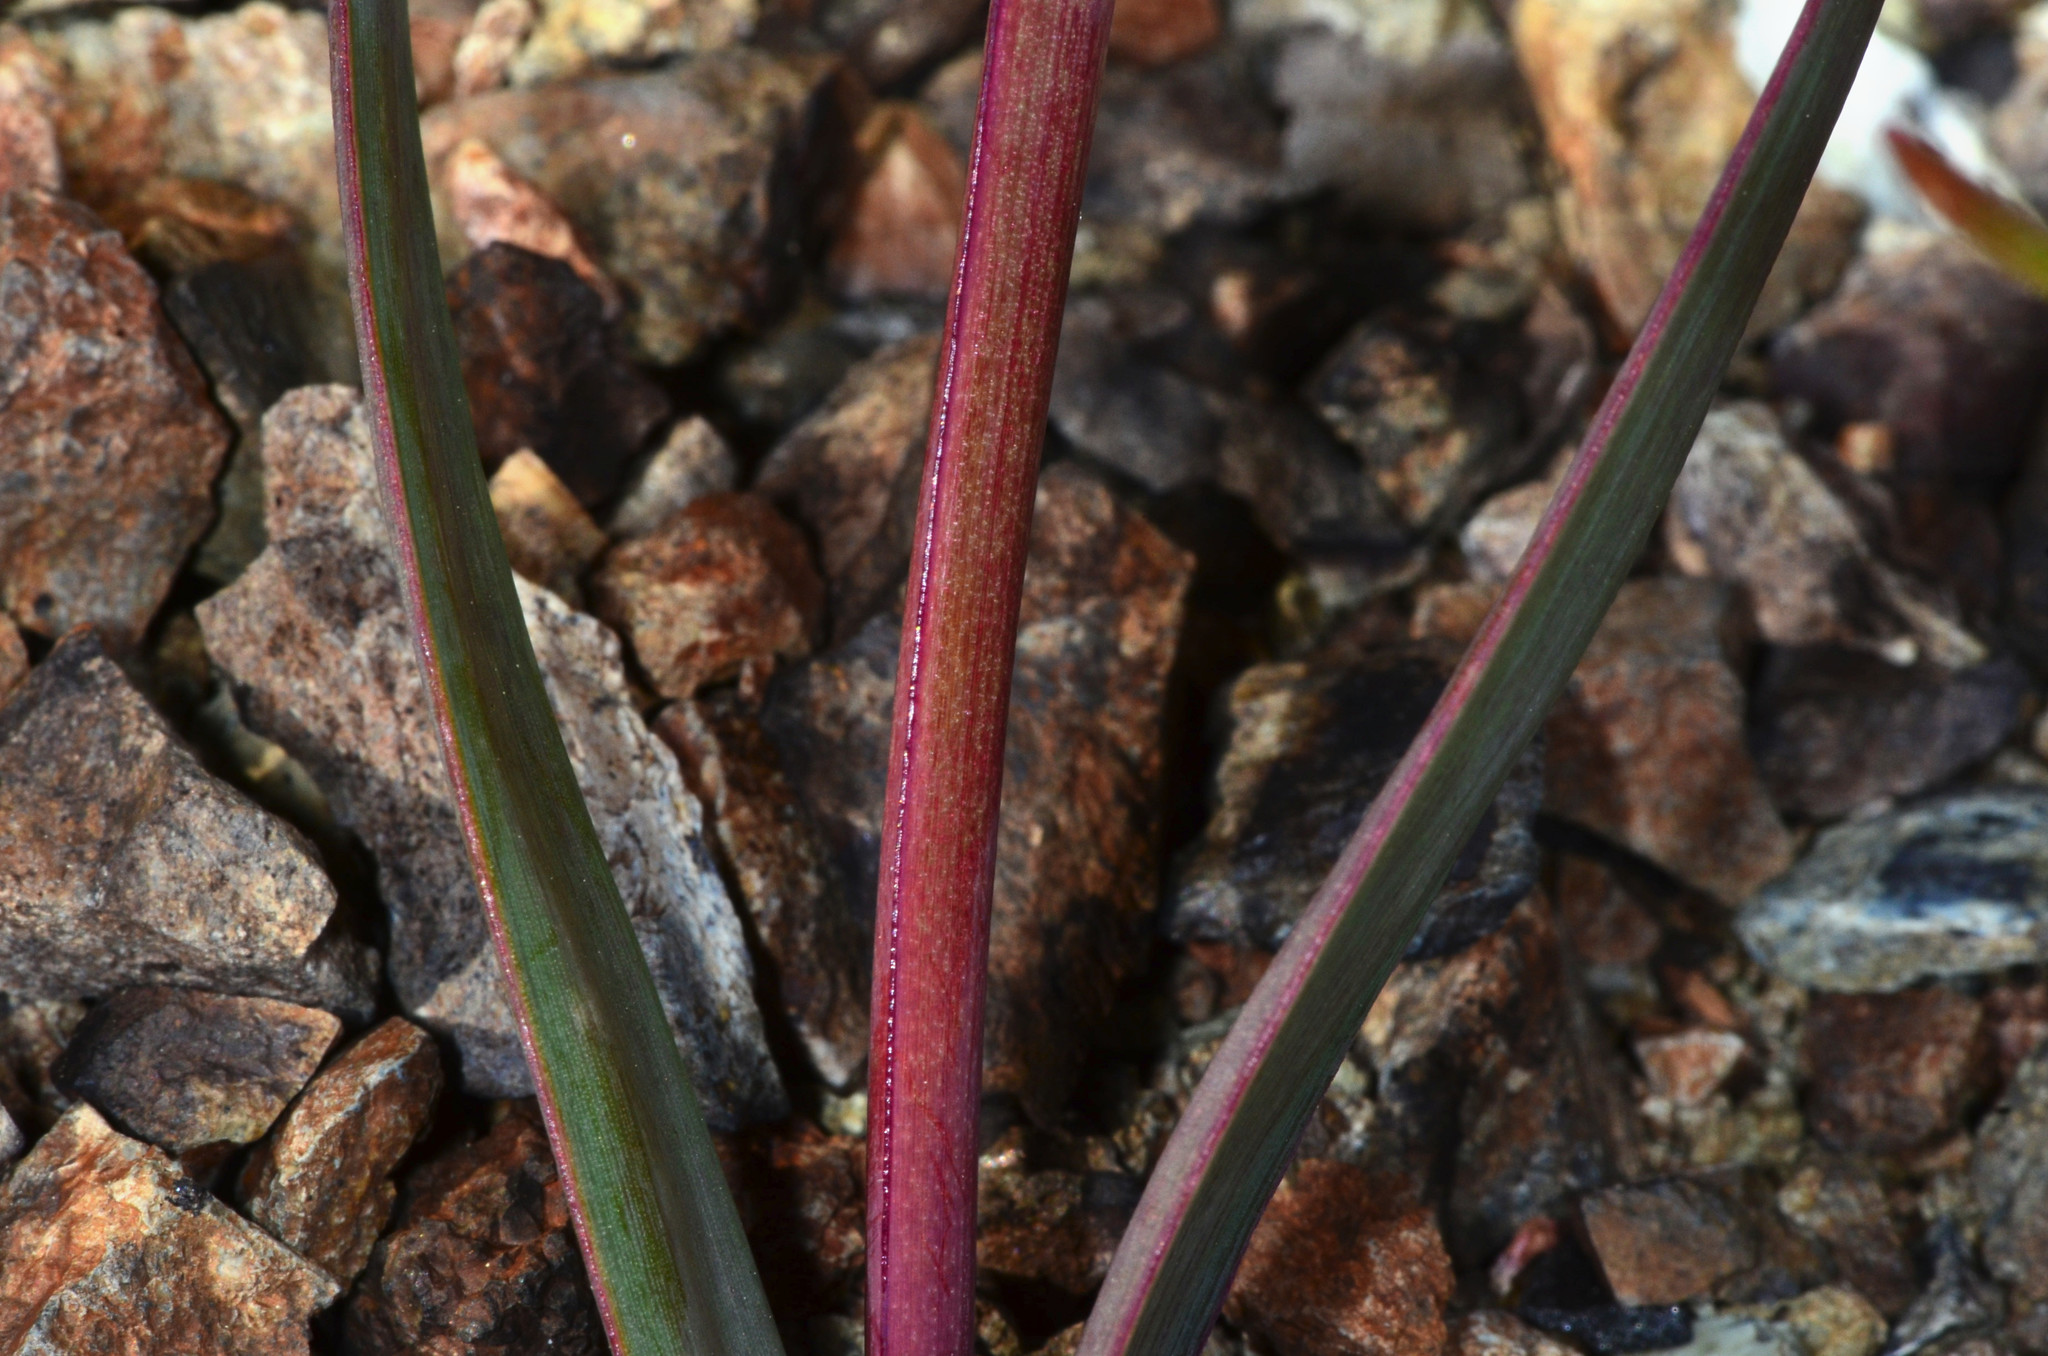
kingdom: Plantae
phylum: Tracheophyta
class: Liliopsida
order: Asparagales
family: Amaryllidaceae
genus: Allium
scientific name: Allium falcifolium
